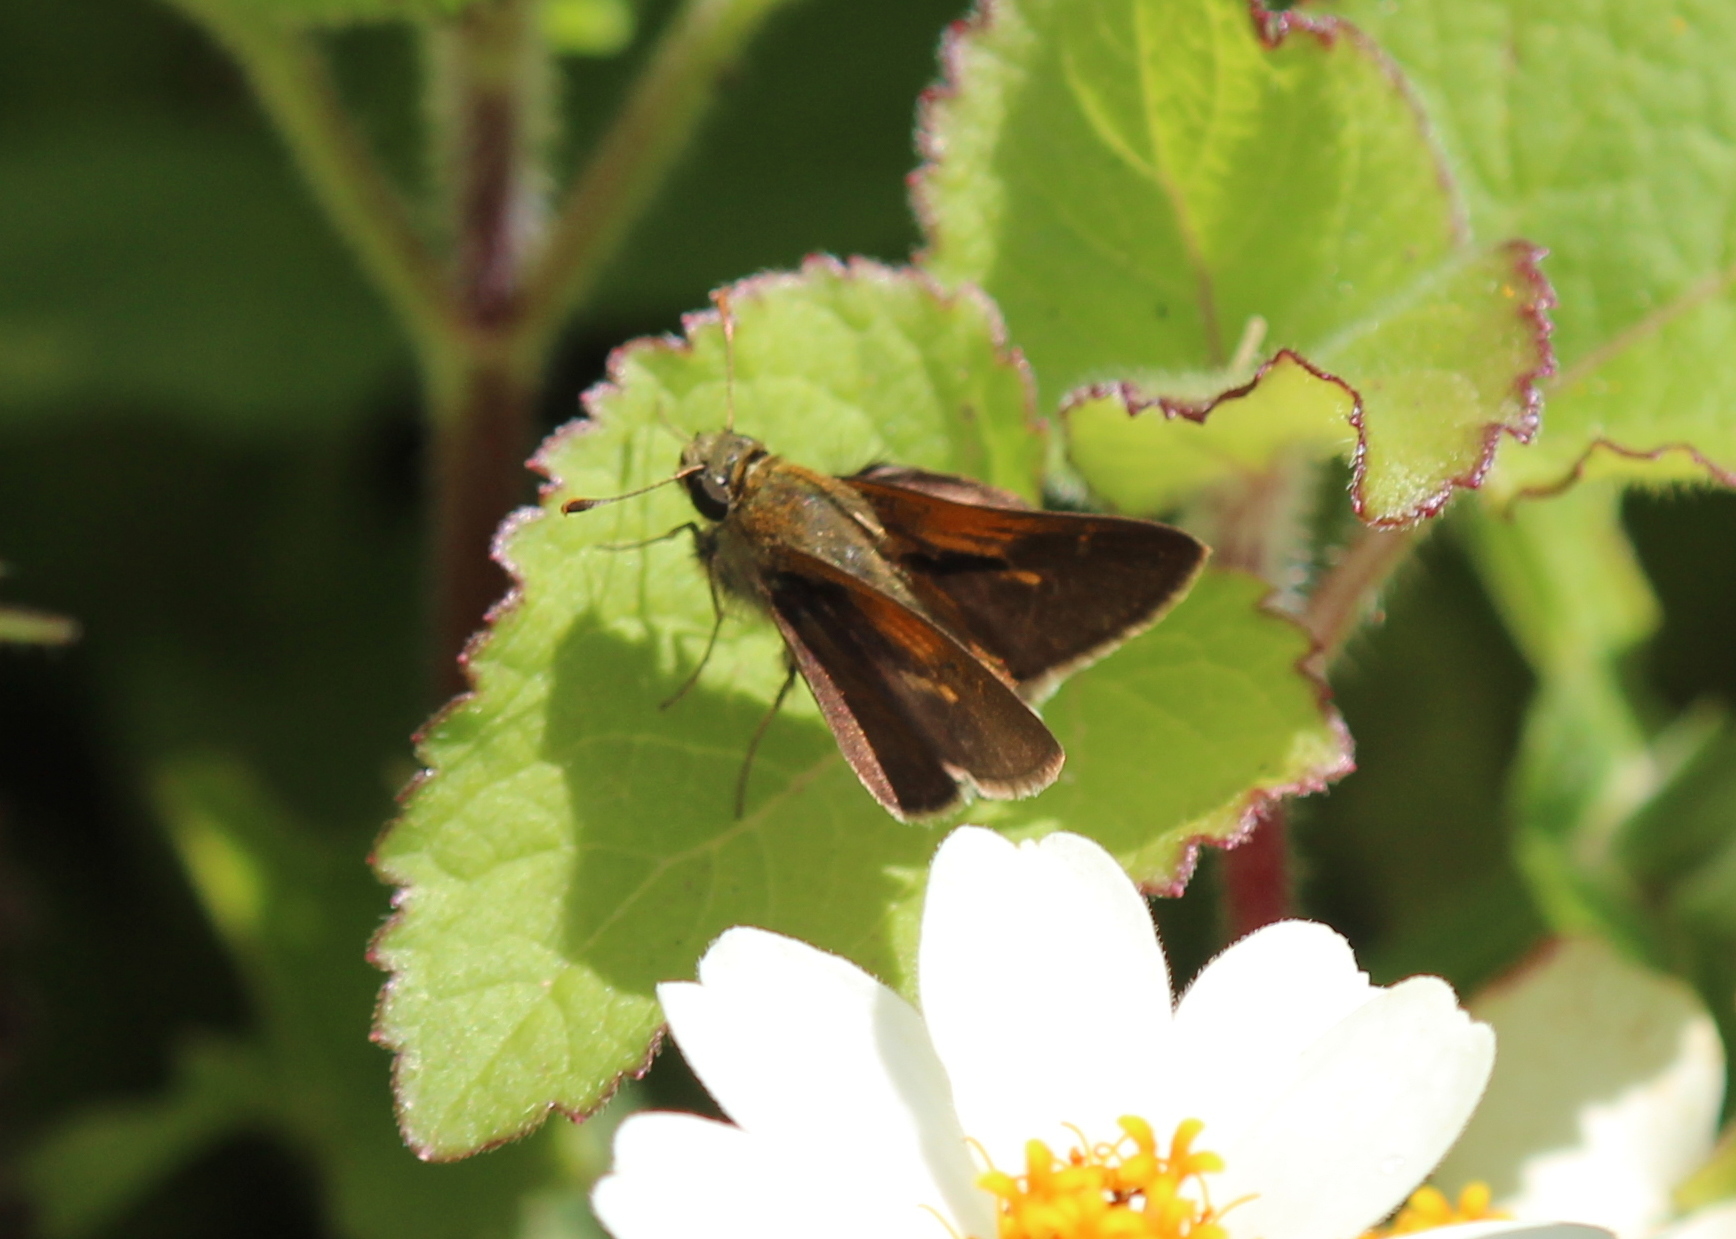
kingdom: Animalia
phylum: Arthropoda
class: Insecta
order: Lepidoptera
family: Hesperiidae
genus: Polites
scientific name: Polites themistocles
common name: Tawny-edged skipper
